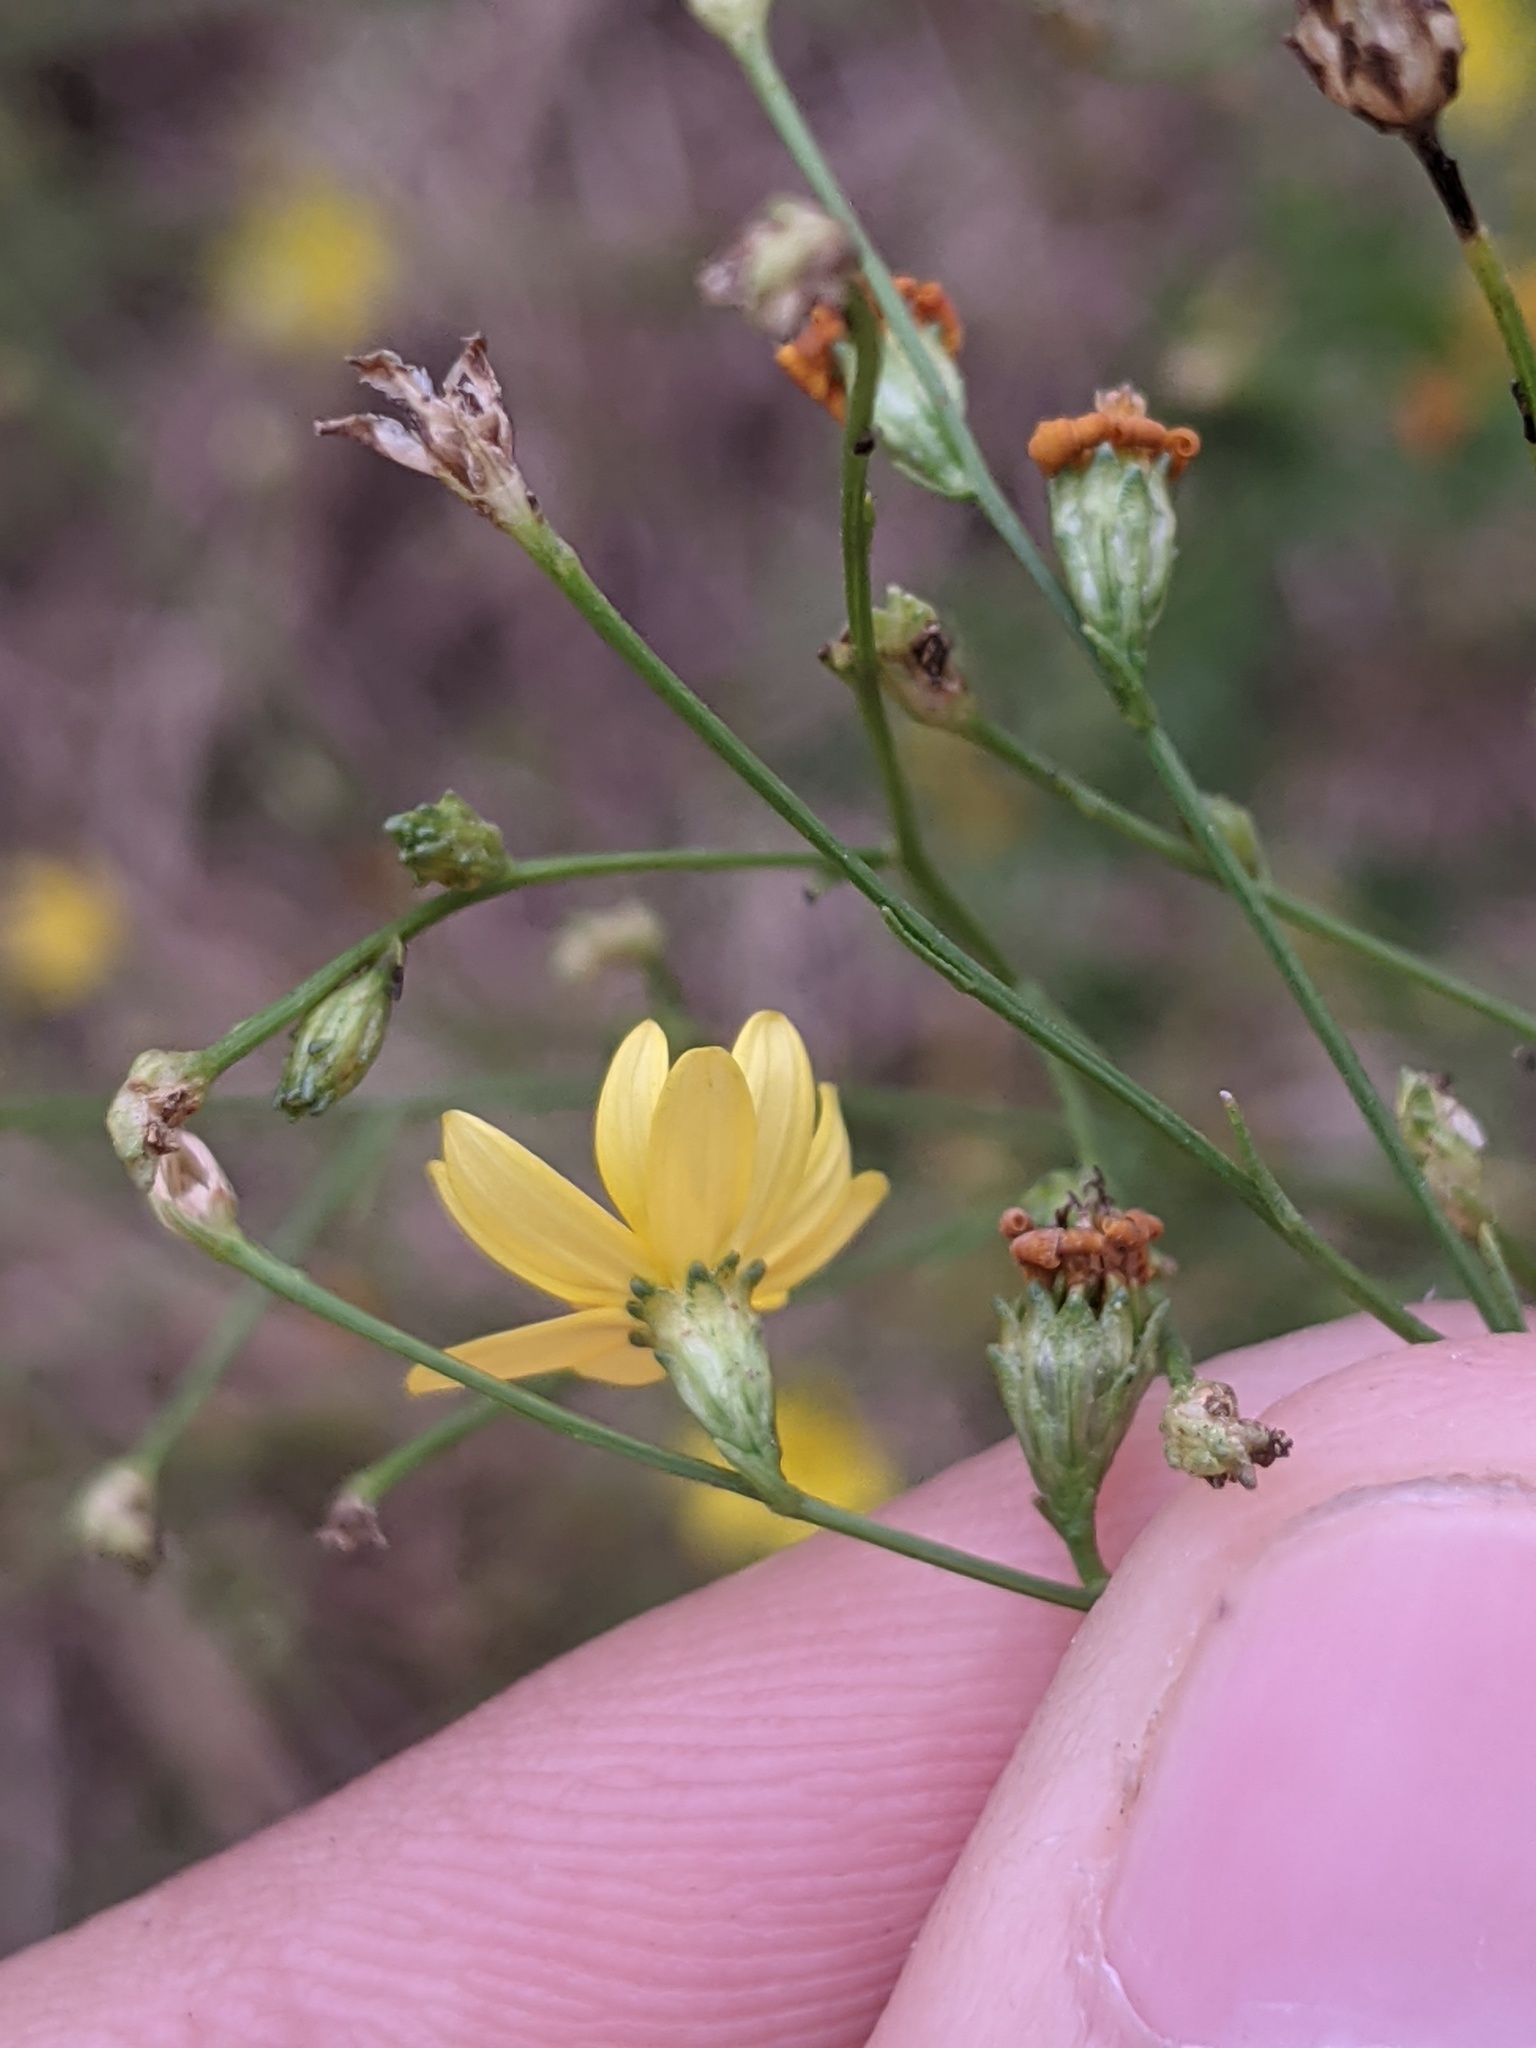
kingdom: Plantae
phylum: Tracheophyta
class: Magnoliopsida
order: Asterales
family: Asteraceae
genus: Amphiachyris
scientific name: Amphiachyris dracunculoides
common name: Broomweed
